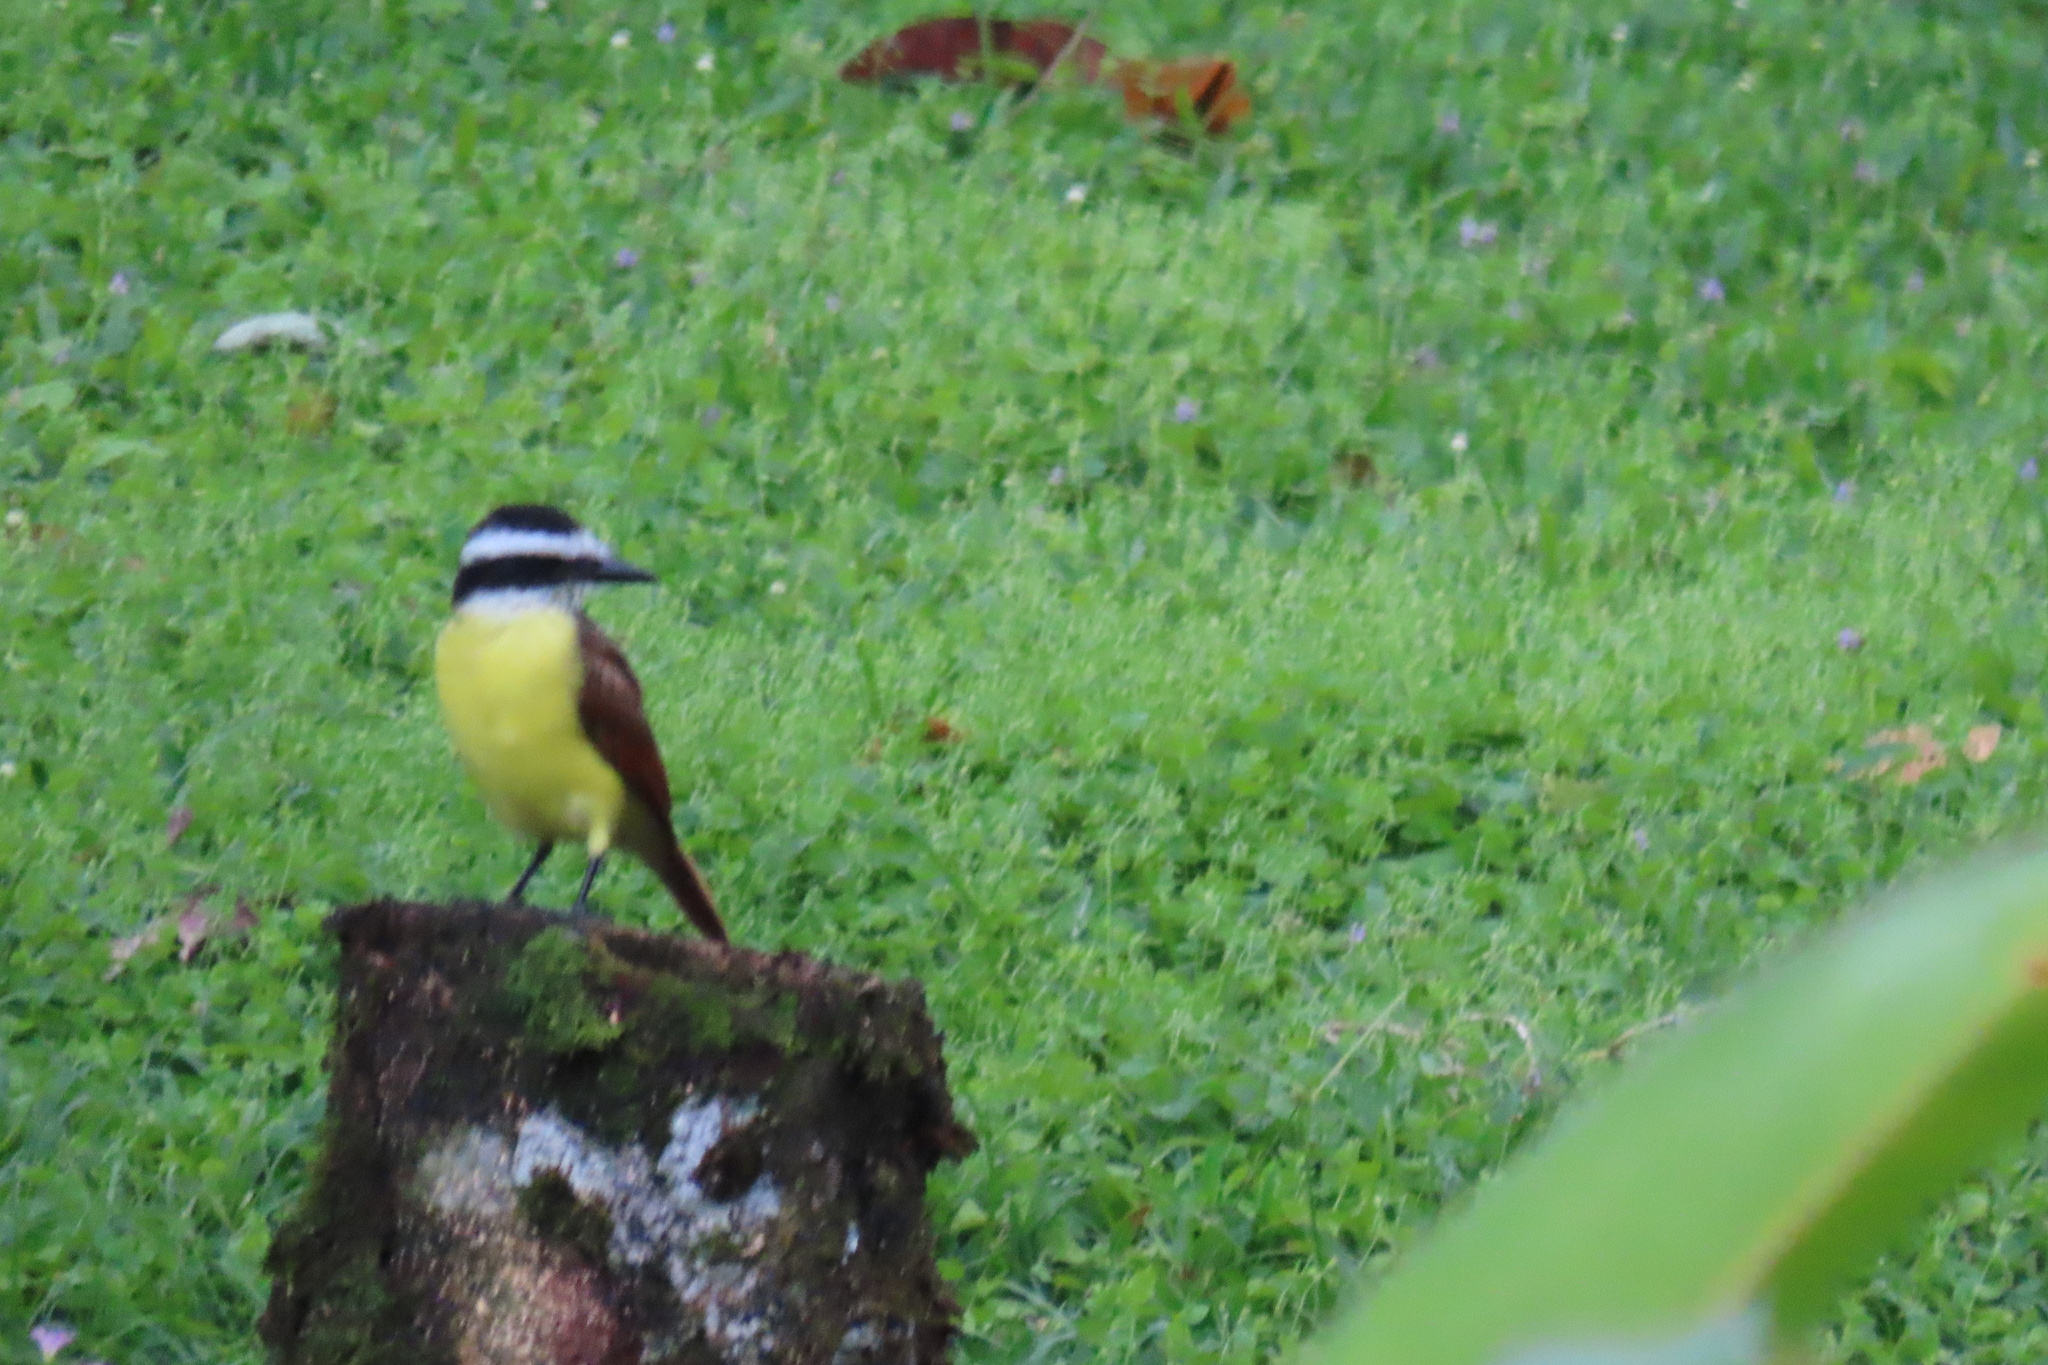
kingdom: Animalia
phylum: Chordata
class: Aves
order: Passeriformes
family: Tyrannidae
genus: Pitangus
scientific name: Pitangus sulphuratus
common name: Great kiskadee
